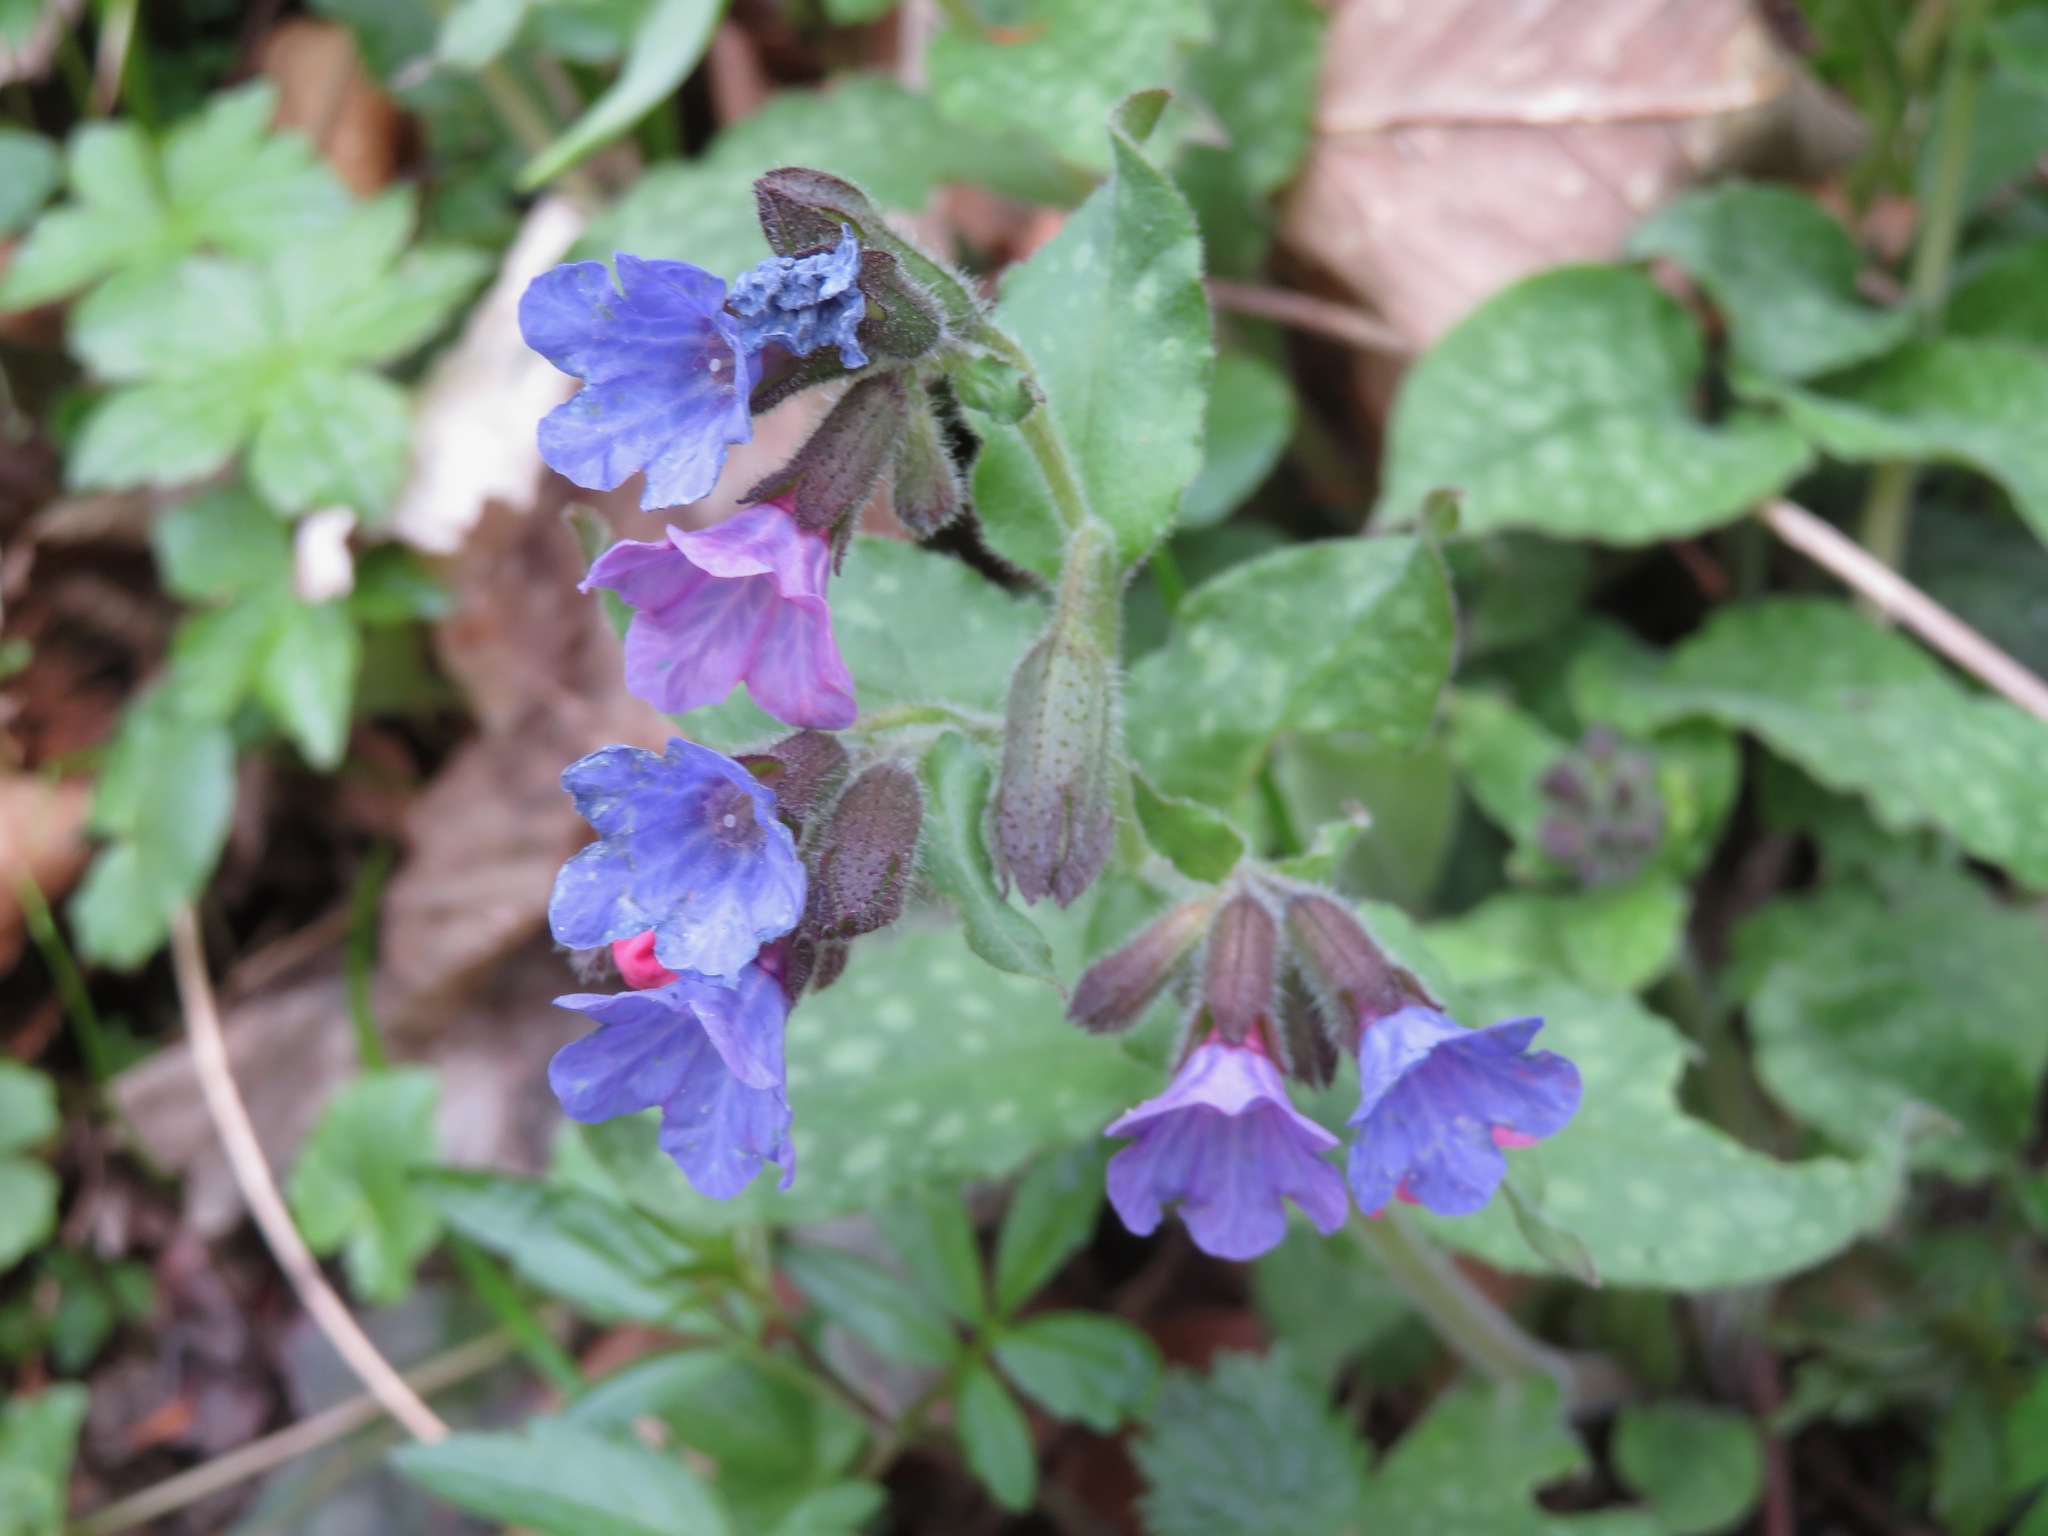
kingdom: Plantae
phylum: Tracheophyta
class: Magnoliopsida
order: Boraginales
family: Boraginaceae
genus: Pulmonaria
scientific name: Pulmonaria officinalis
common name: Lungwort
